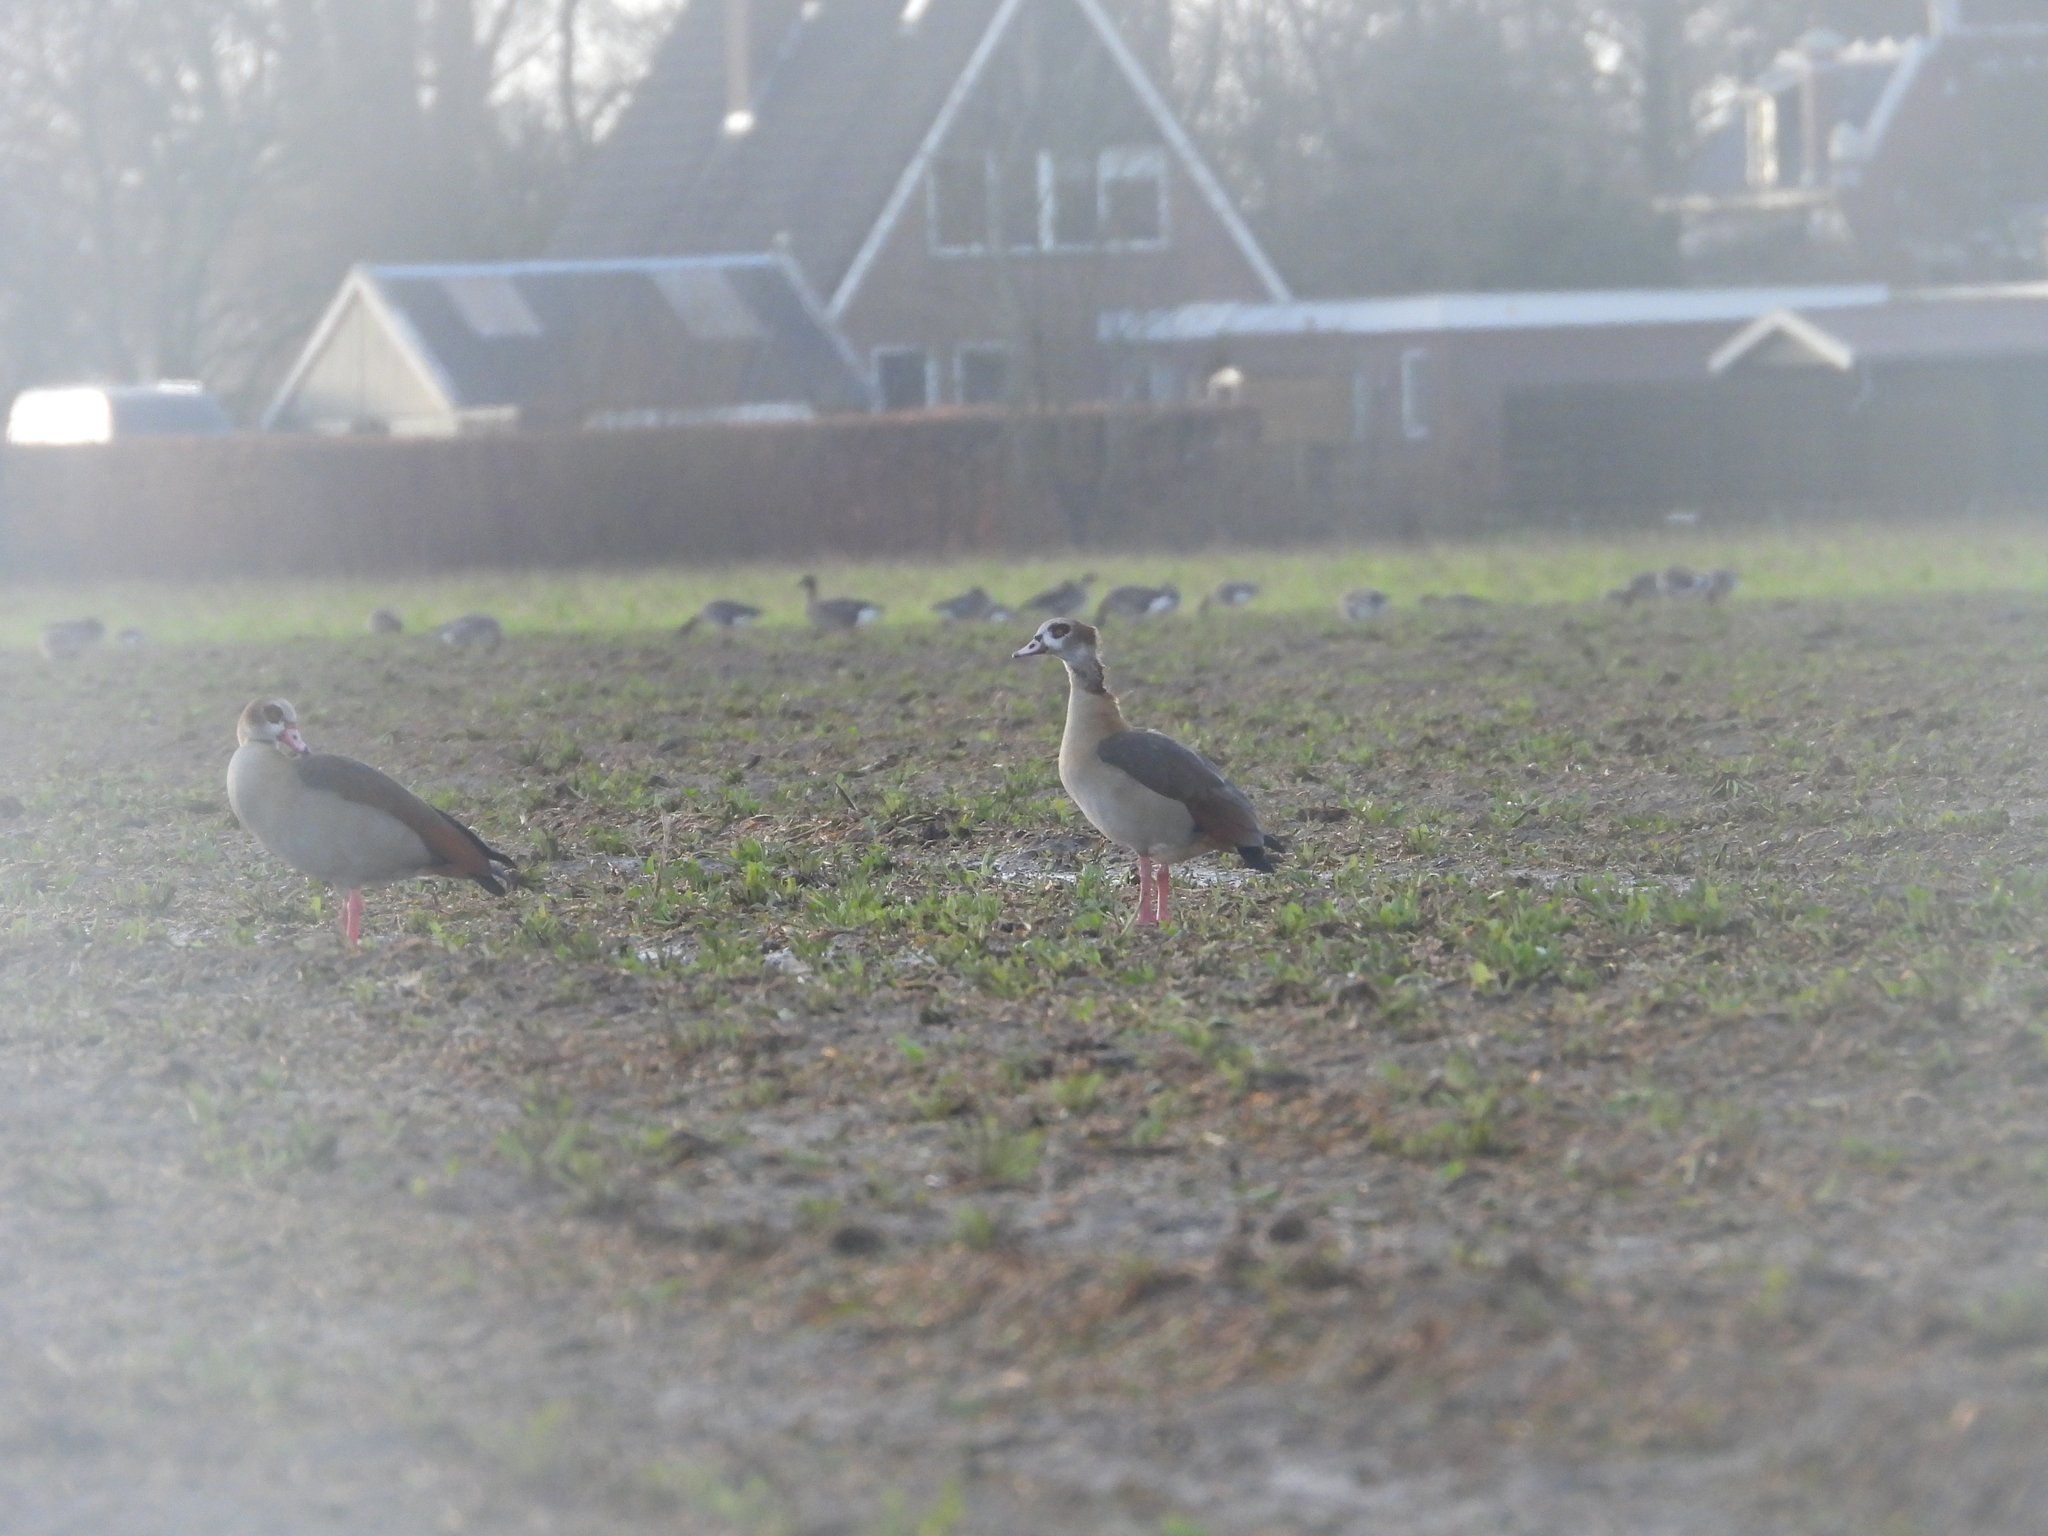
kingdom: Animalia
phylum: Chordata
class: Aves
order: Anseriformes
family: Anatidae
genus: Alopochen
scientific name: Alopochen aegyptiaca
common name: Egyptian goose
